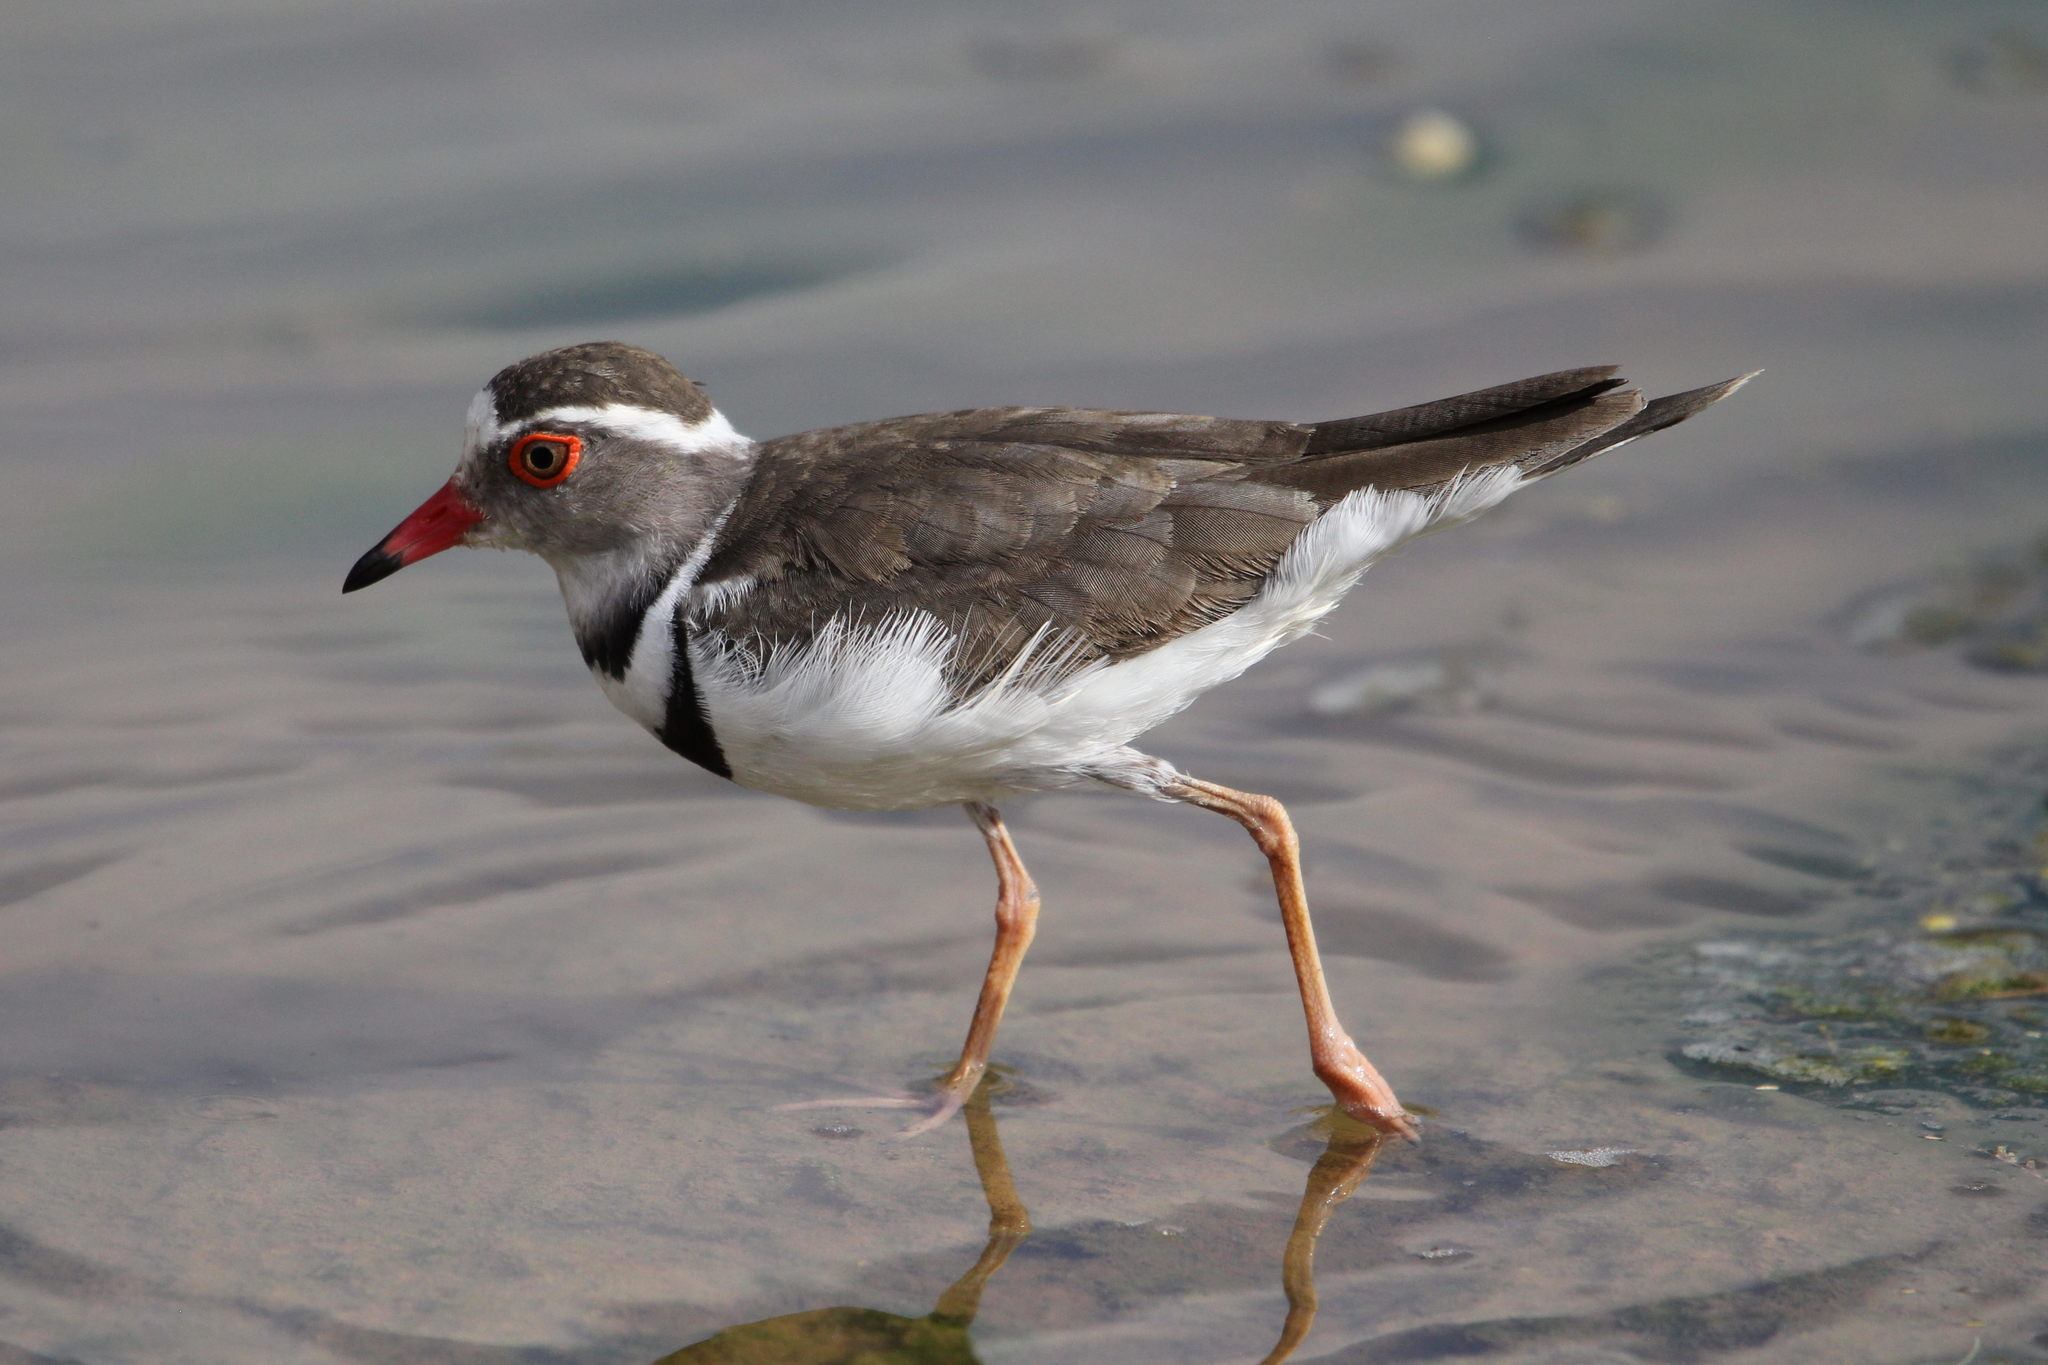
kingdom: Animalia
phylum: Chordata
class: Aves
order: Charadriiformes
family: Charadriidae
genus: Charadrius
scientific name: Charadrius tricollaris
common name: Three-banded plover
